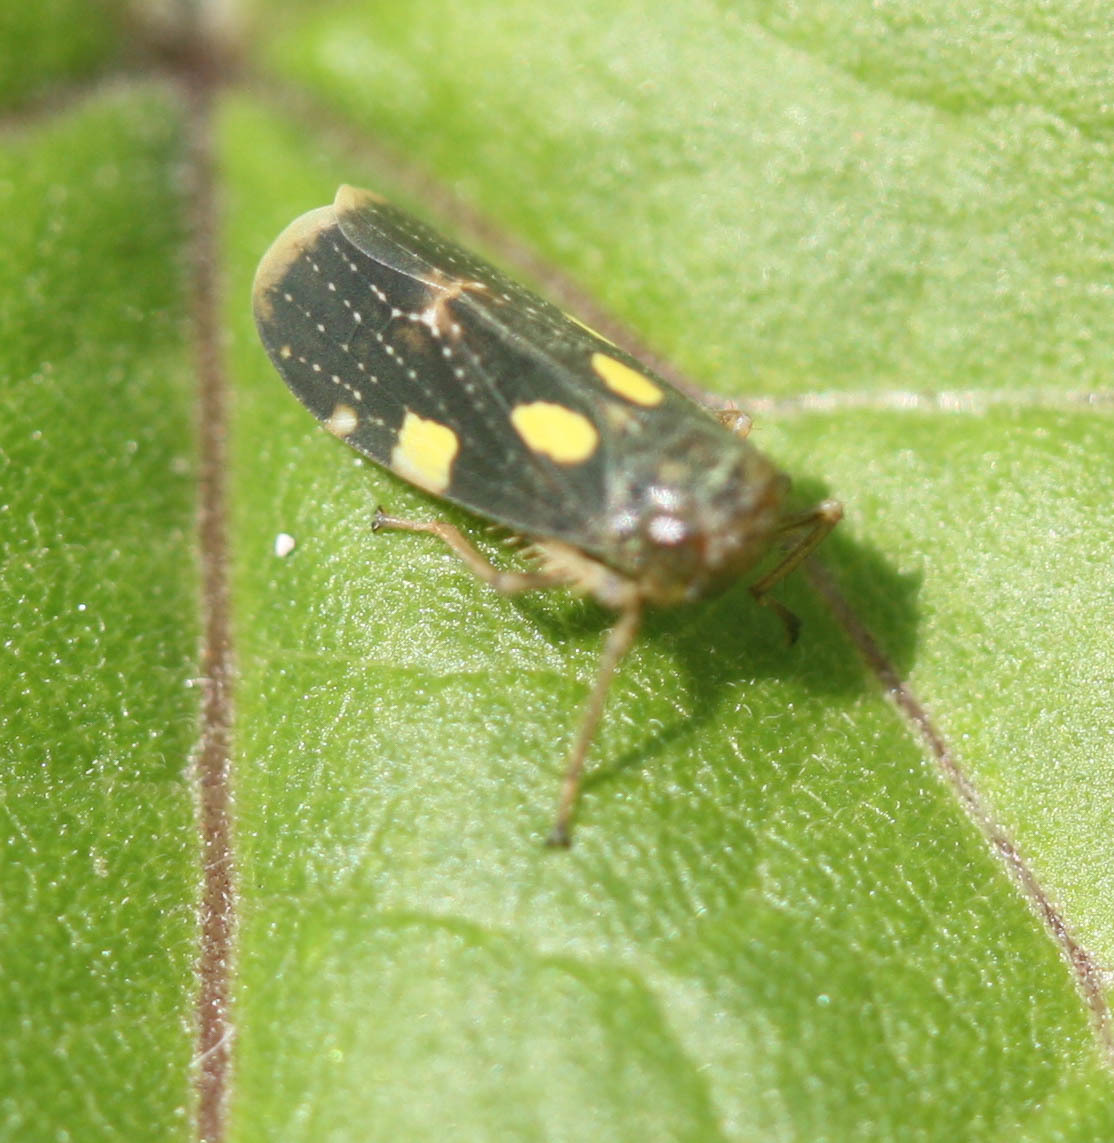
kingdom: Animalia
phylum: Arthropoda
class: Insecta
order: Hemiptera
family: Cicadellidae
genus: Omanolidia
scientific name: Omanolidia bistyla
